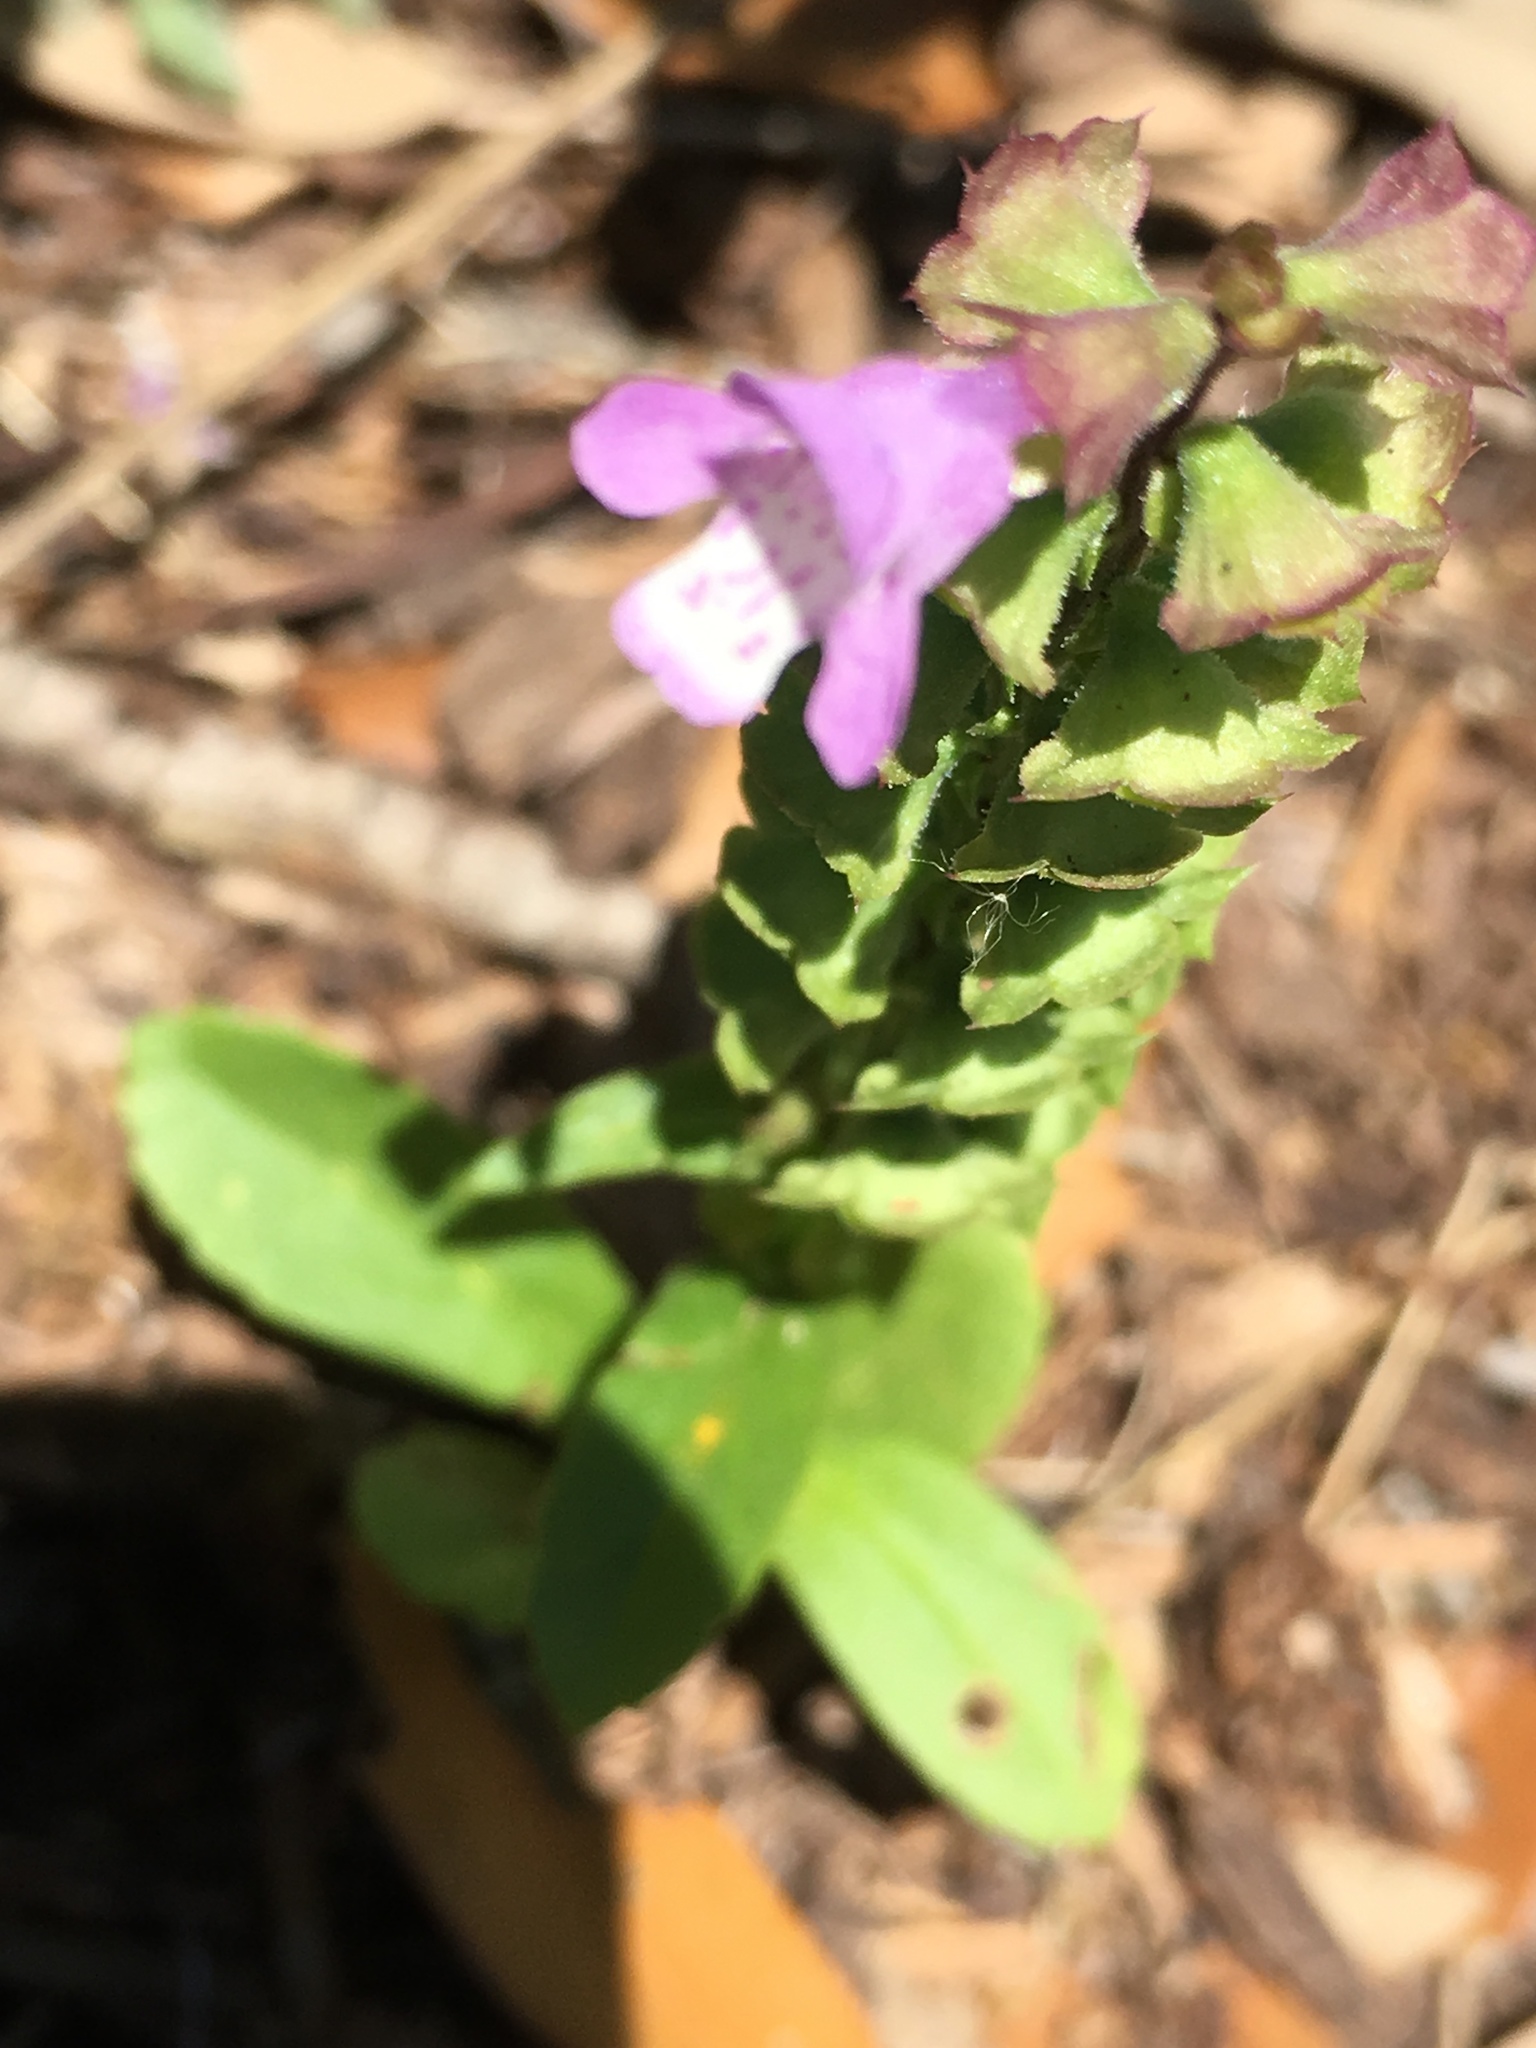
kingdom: Plantae
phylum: Tracheophyta
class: Magnoliopsida
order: Lamiales
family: Lamiaceae
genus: Warnockia
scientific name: Warnockia scutellarioides
